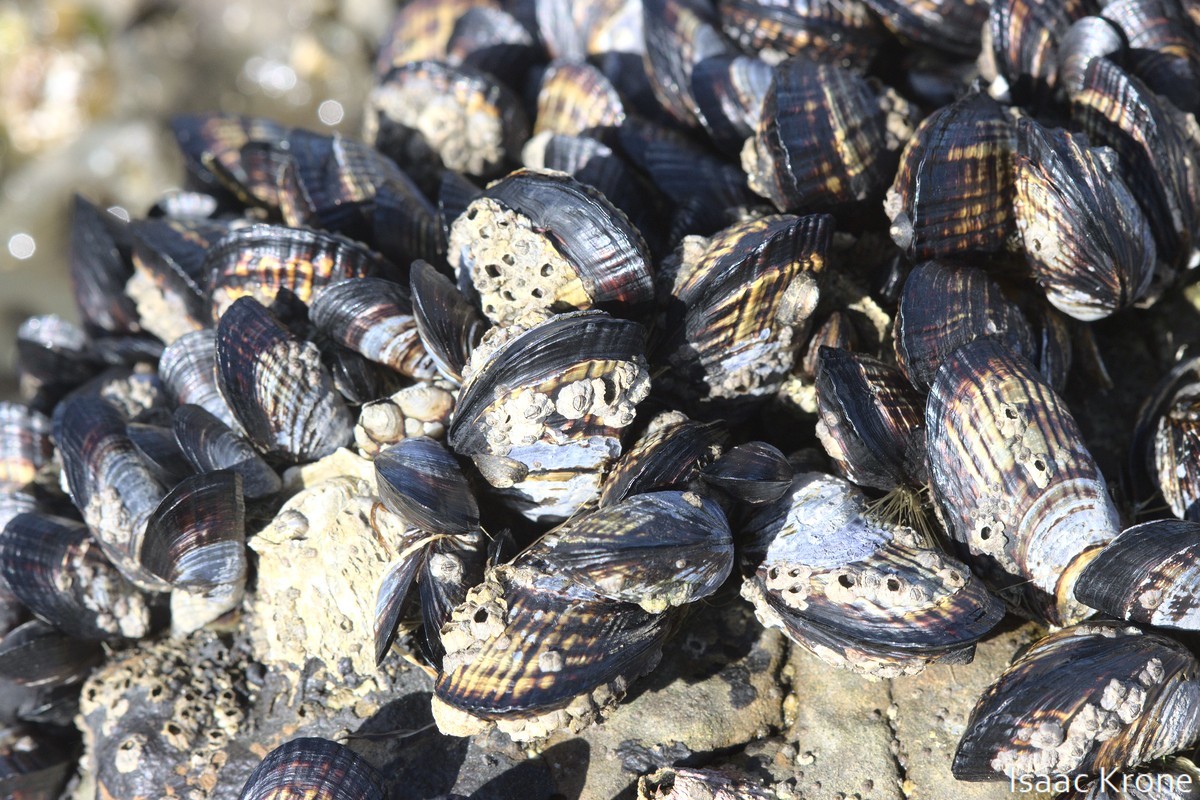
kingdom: Animalia
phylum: Mollusca
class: Bivalvia
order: Mytilida
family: Mytilidae
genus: Mytilus
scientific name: Mytilus californianus
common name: California mussel
